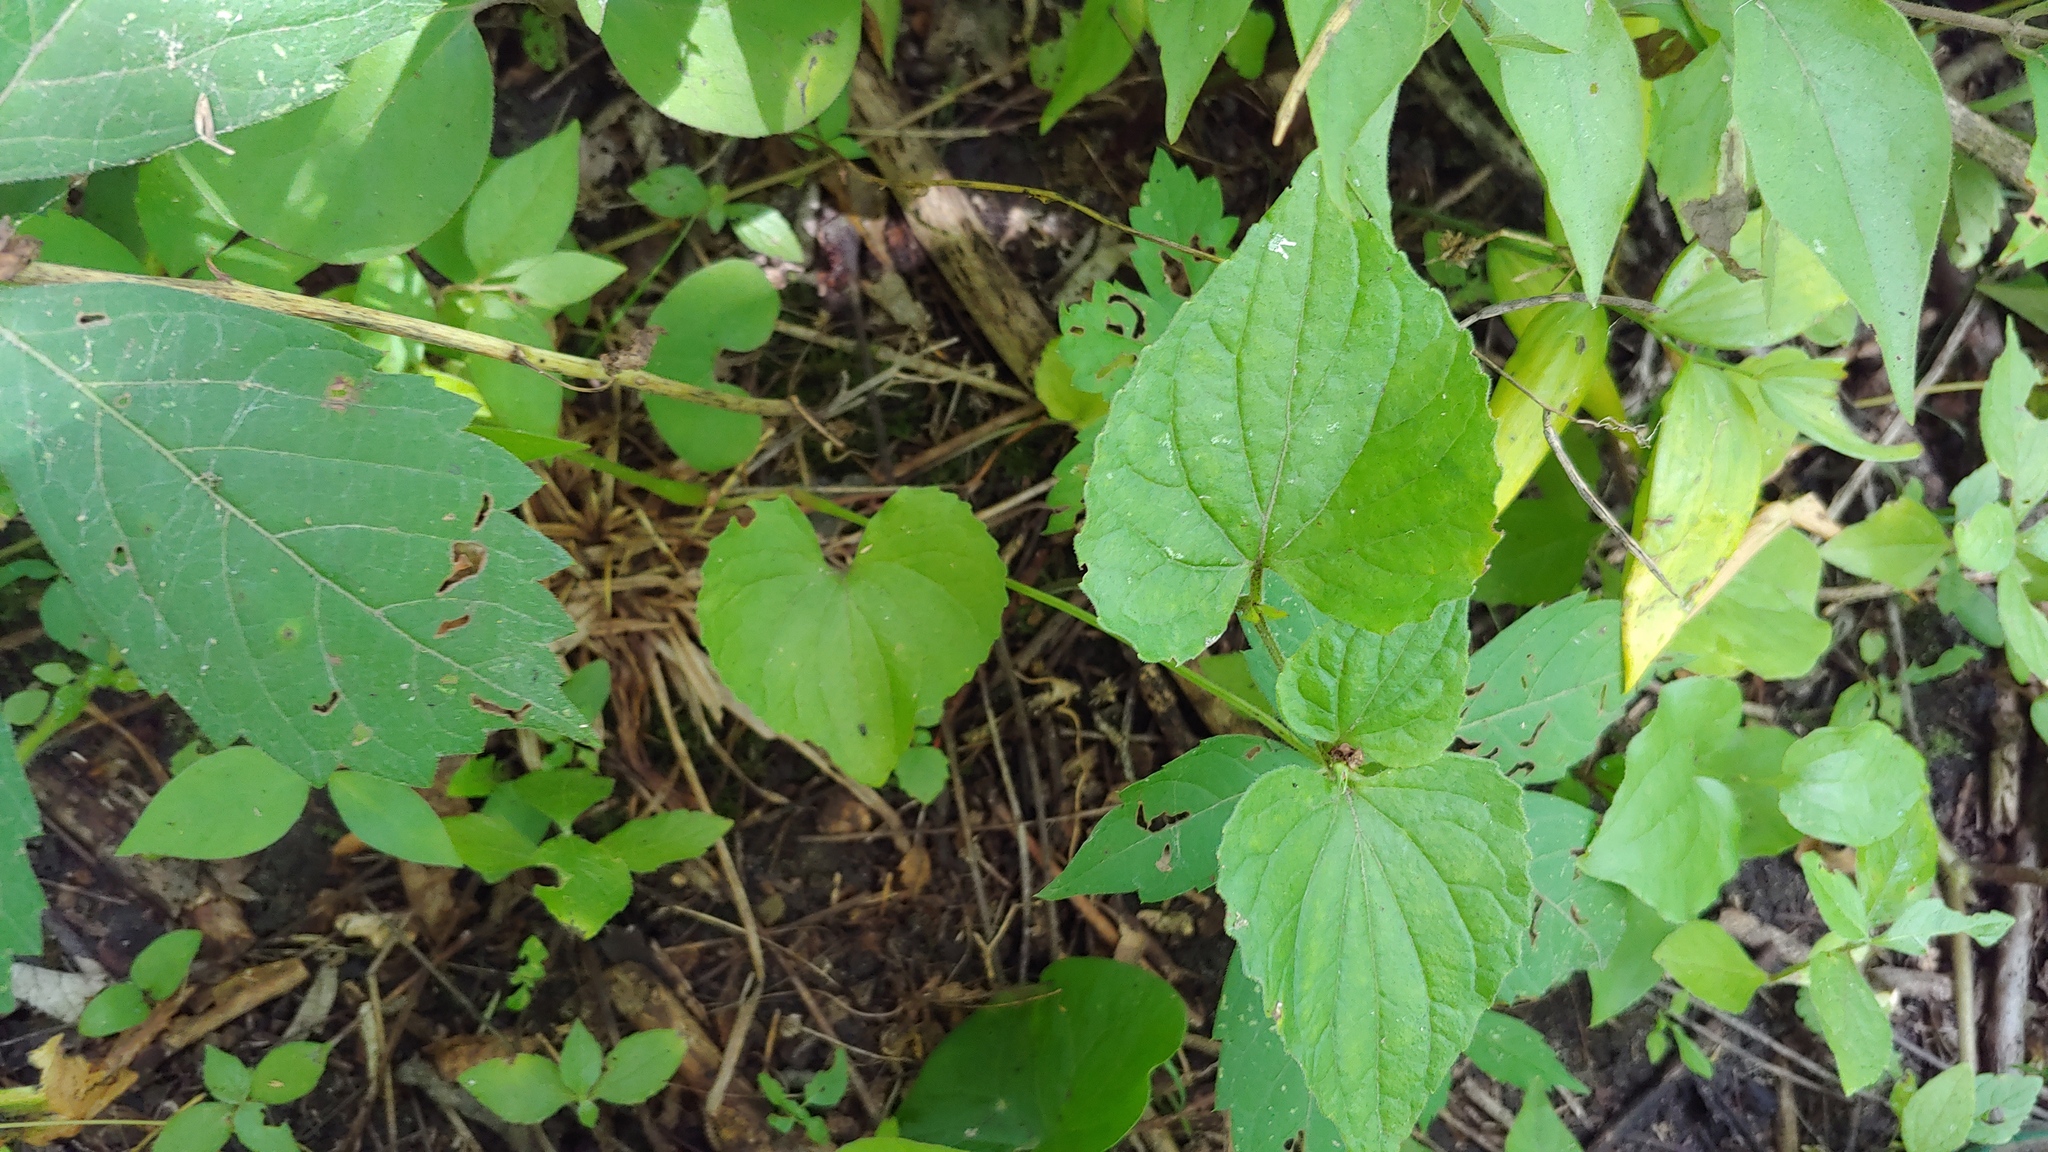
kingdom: Plantae
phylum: Tracheophyta
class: Magnoliopsida
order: Malpighiales
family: Violaceae
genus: Viola
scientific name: Viola eriocarpa
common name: Smooth yellow violet
